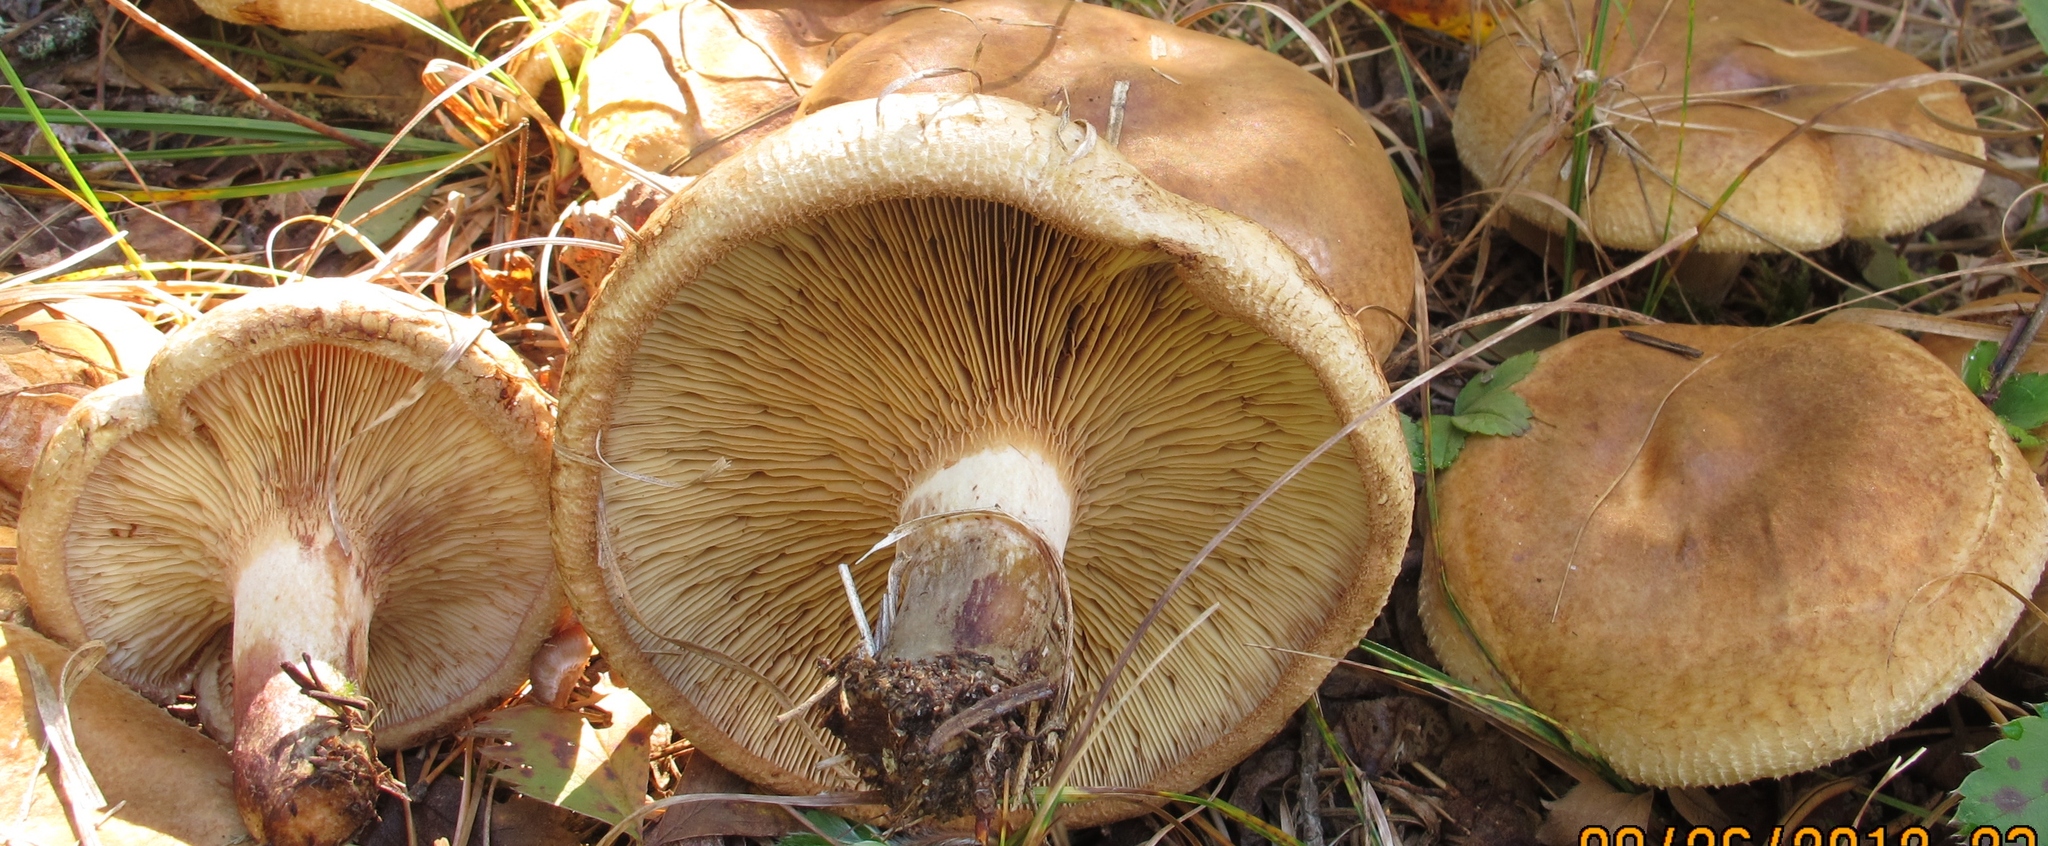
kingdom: Fungi
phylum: Basidiomycota
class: Agaricomycetes
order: Boletales
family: Paxillaceae
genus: Paxillus
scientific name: Paxillus involutus
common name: Brown roll rim
